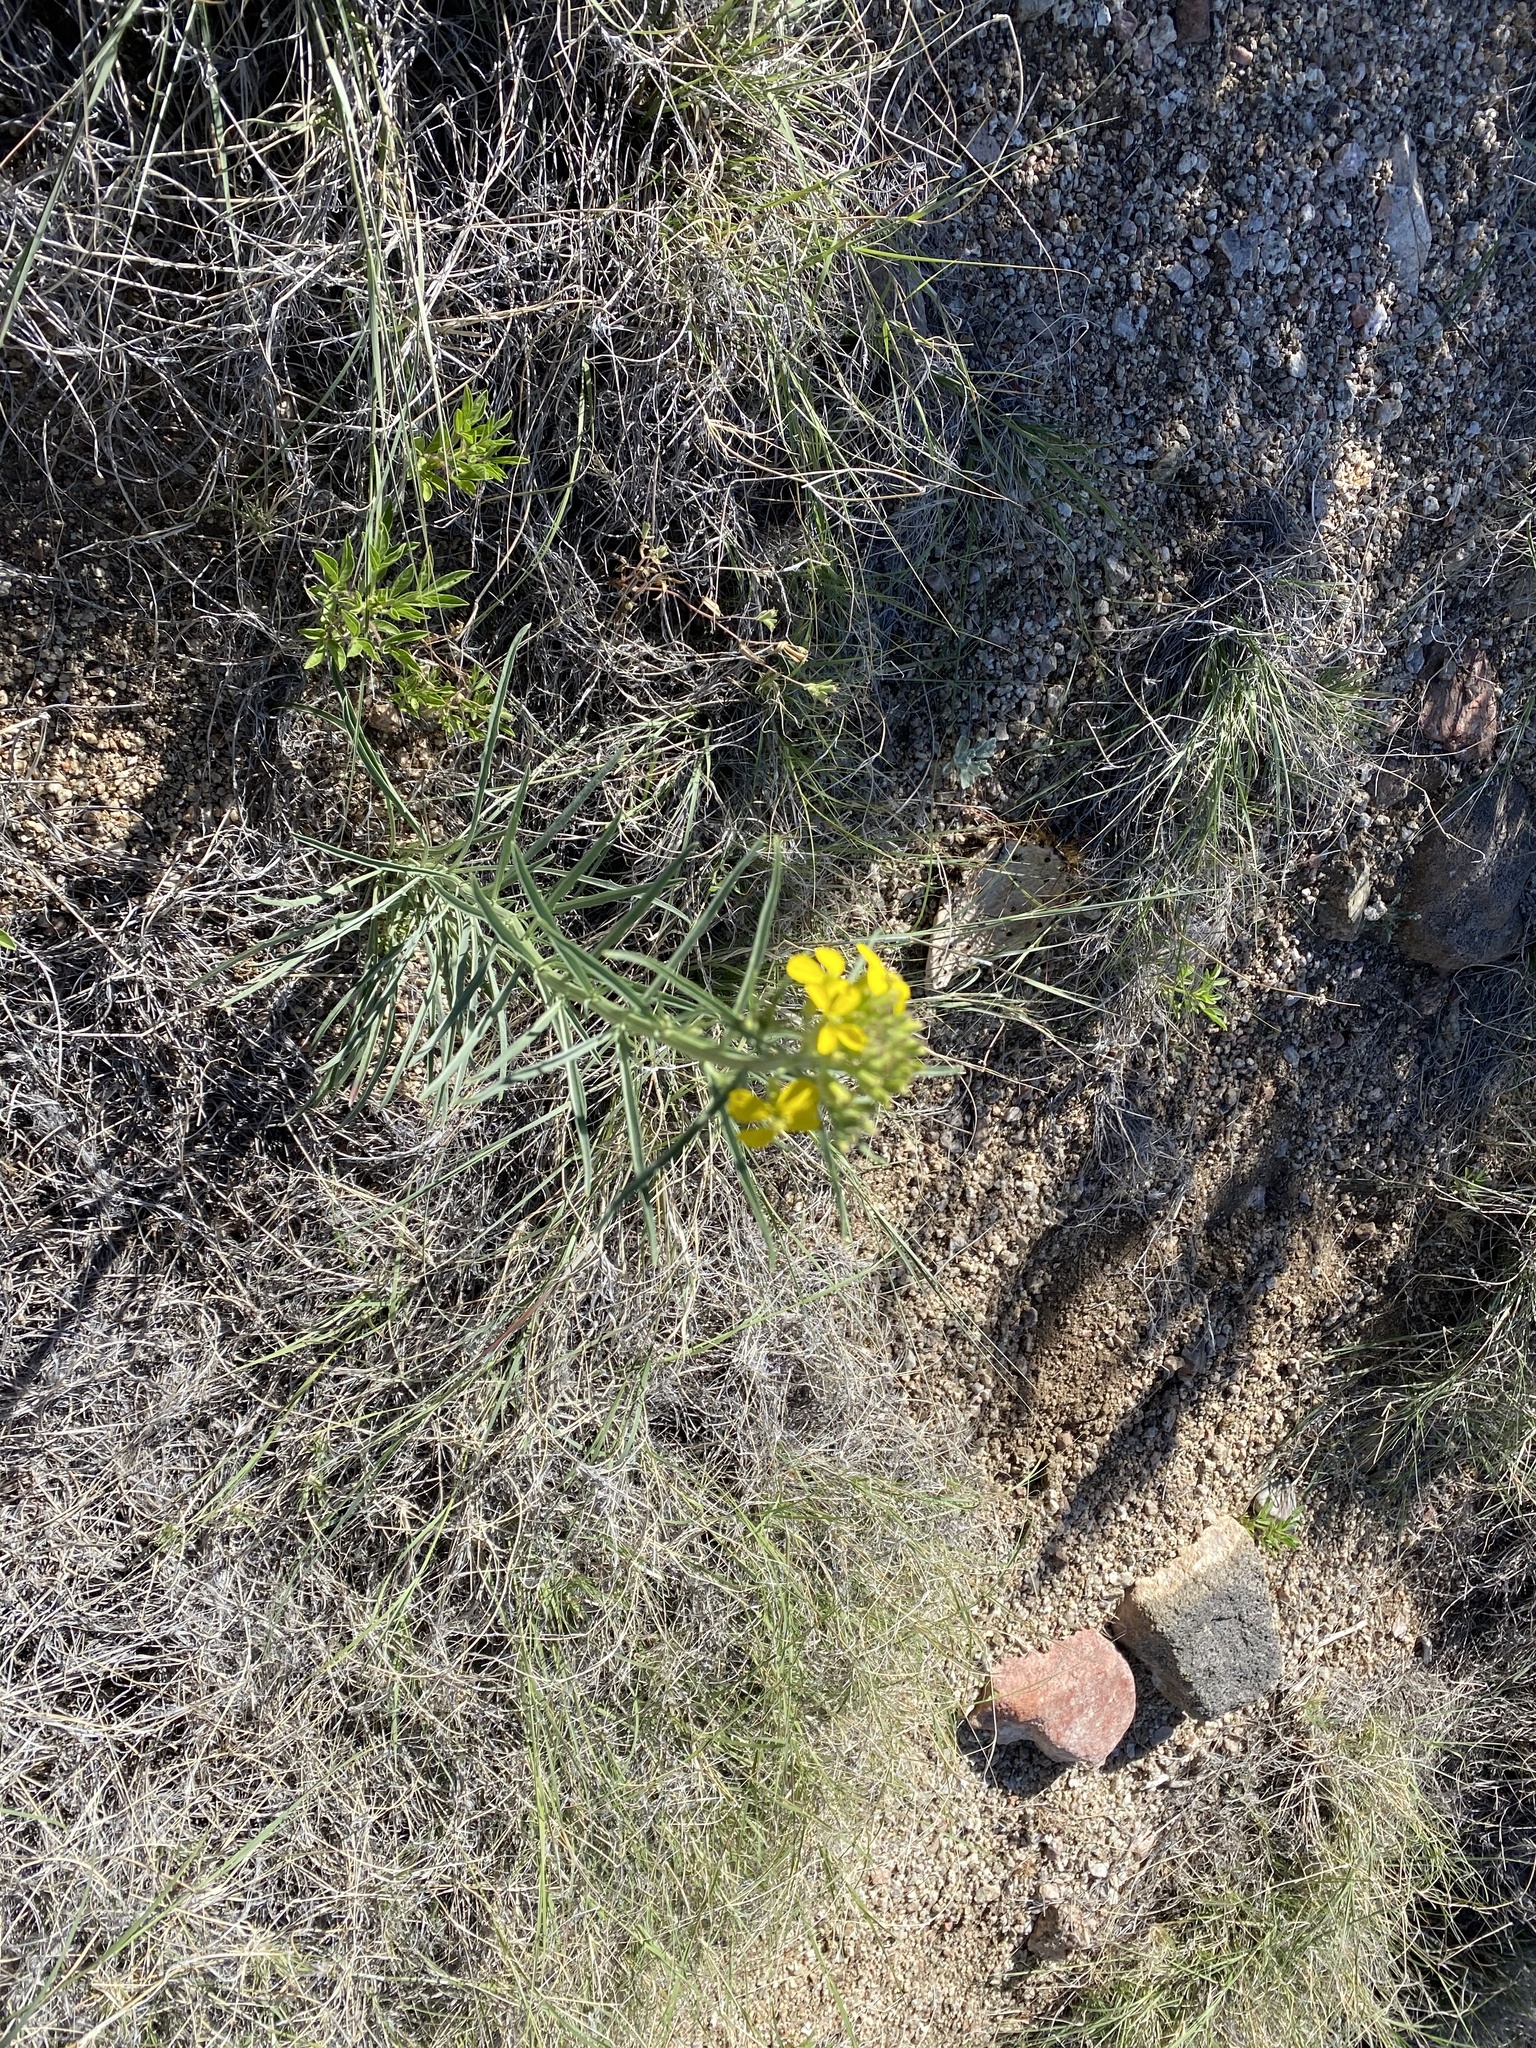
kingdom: Plantae
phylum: Tracheophyta
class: Magnoliopsida
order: Brassicales
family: Brassicaceae
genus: Erysimum
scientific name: Erysimum capitatum
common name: Western wallflower
